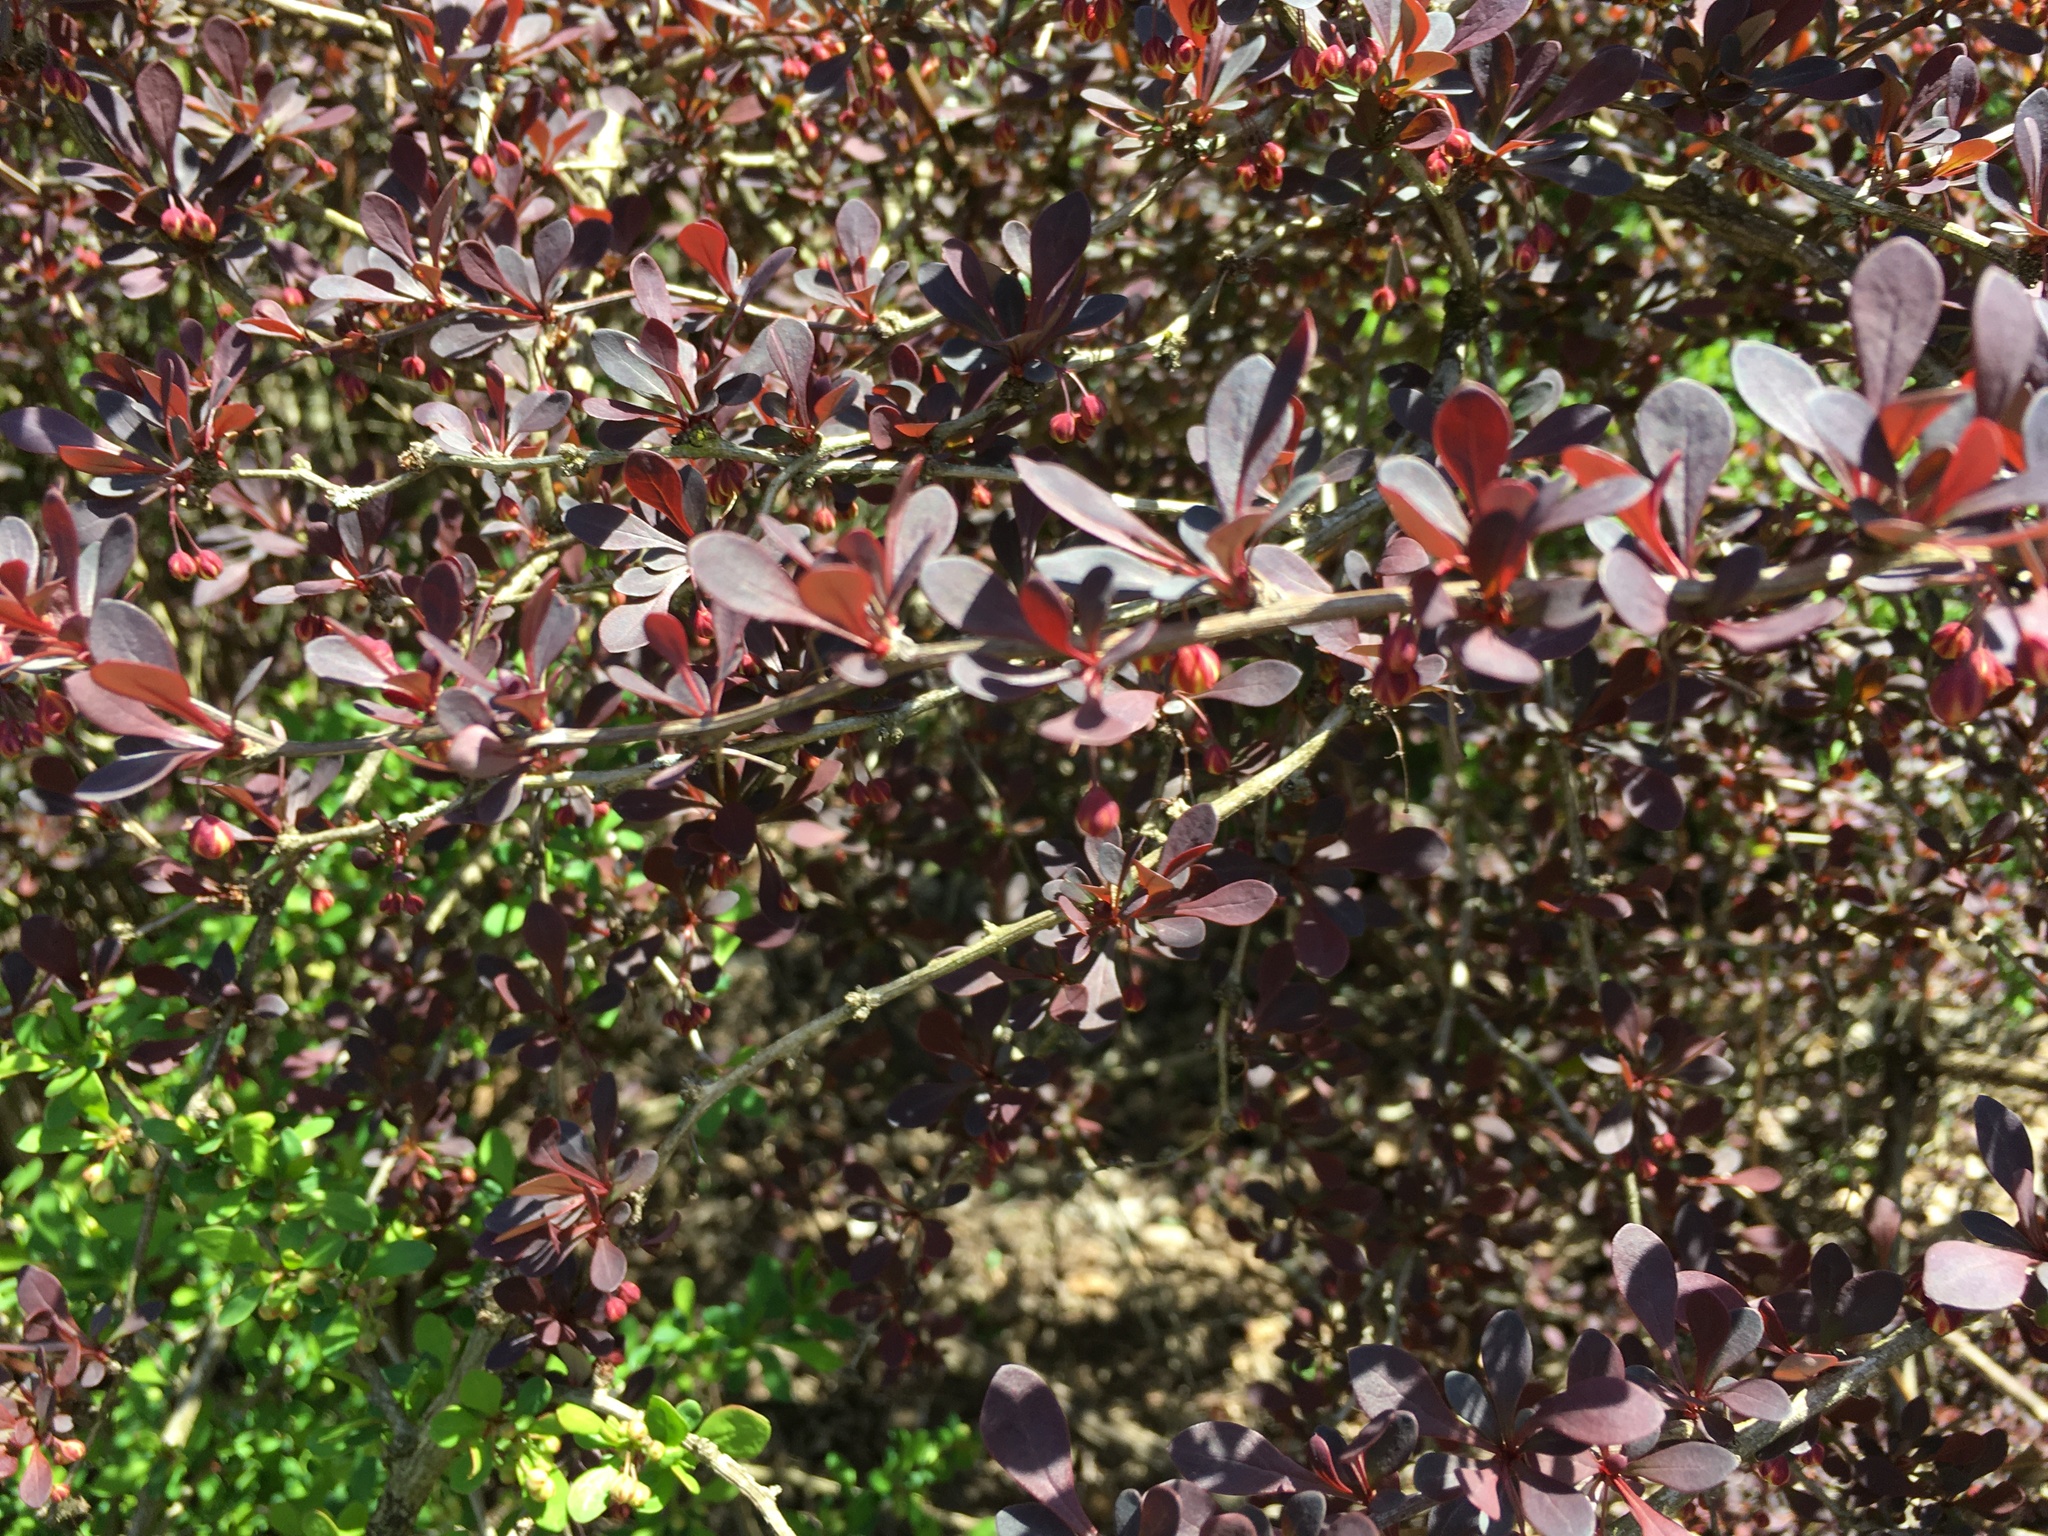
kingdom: Plantae
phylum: Tracheophyta
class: Magnoliopsida
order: Ranunculales
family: Berberidaceae
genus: Berberis
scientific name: Berberis thunbergii
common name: Japanese barberry
